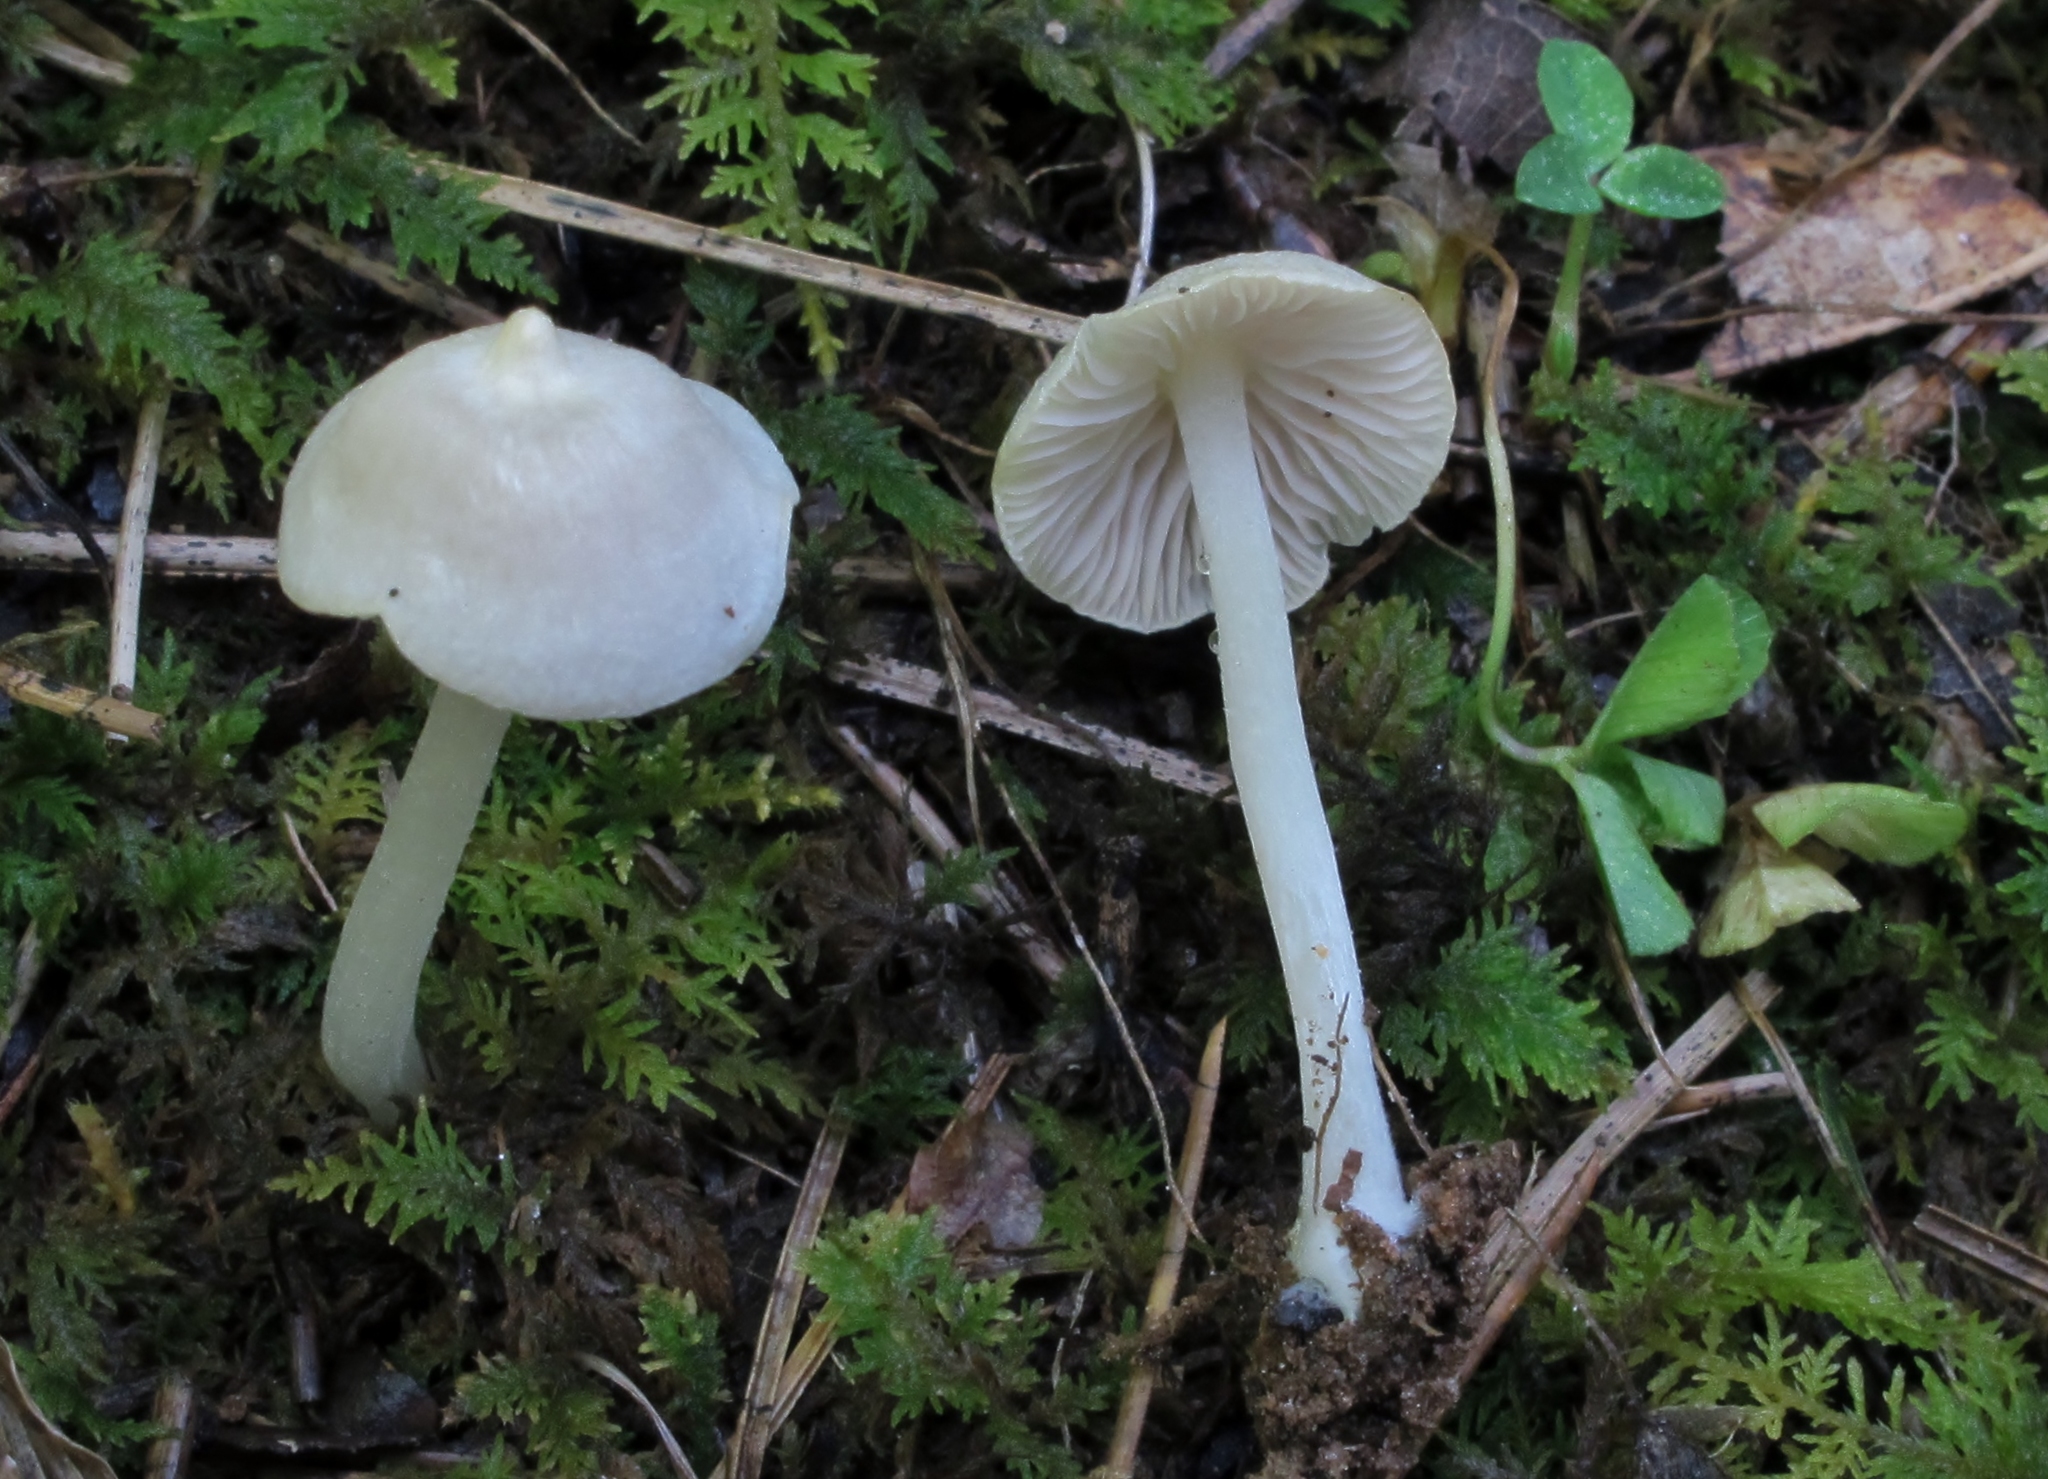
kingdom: Fungi
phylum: Basidiomycota
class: Agaricomycetes
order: Agaricales
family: Entolomataceae
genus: Entoloma
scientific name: Entoloma alboumbonatum
